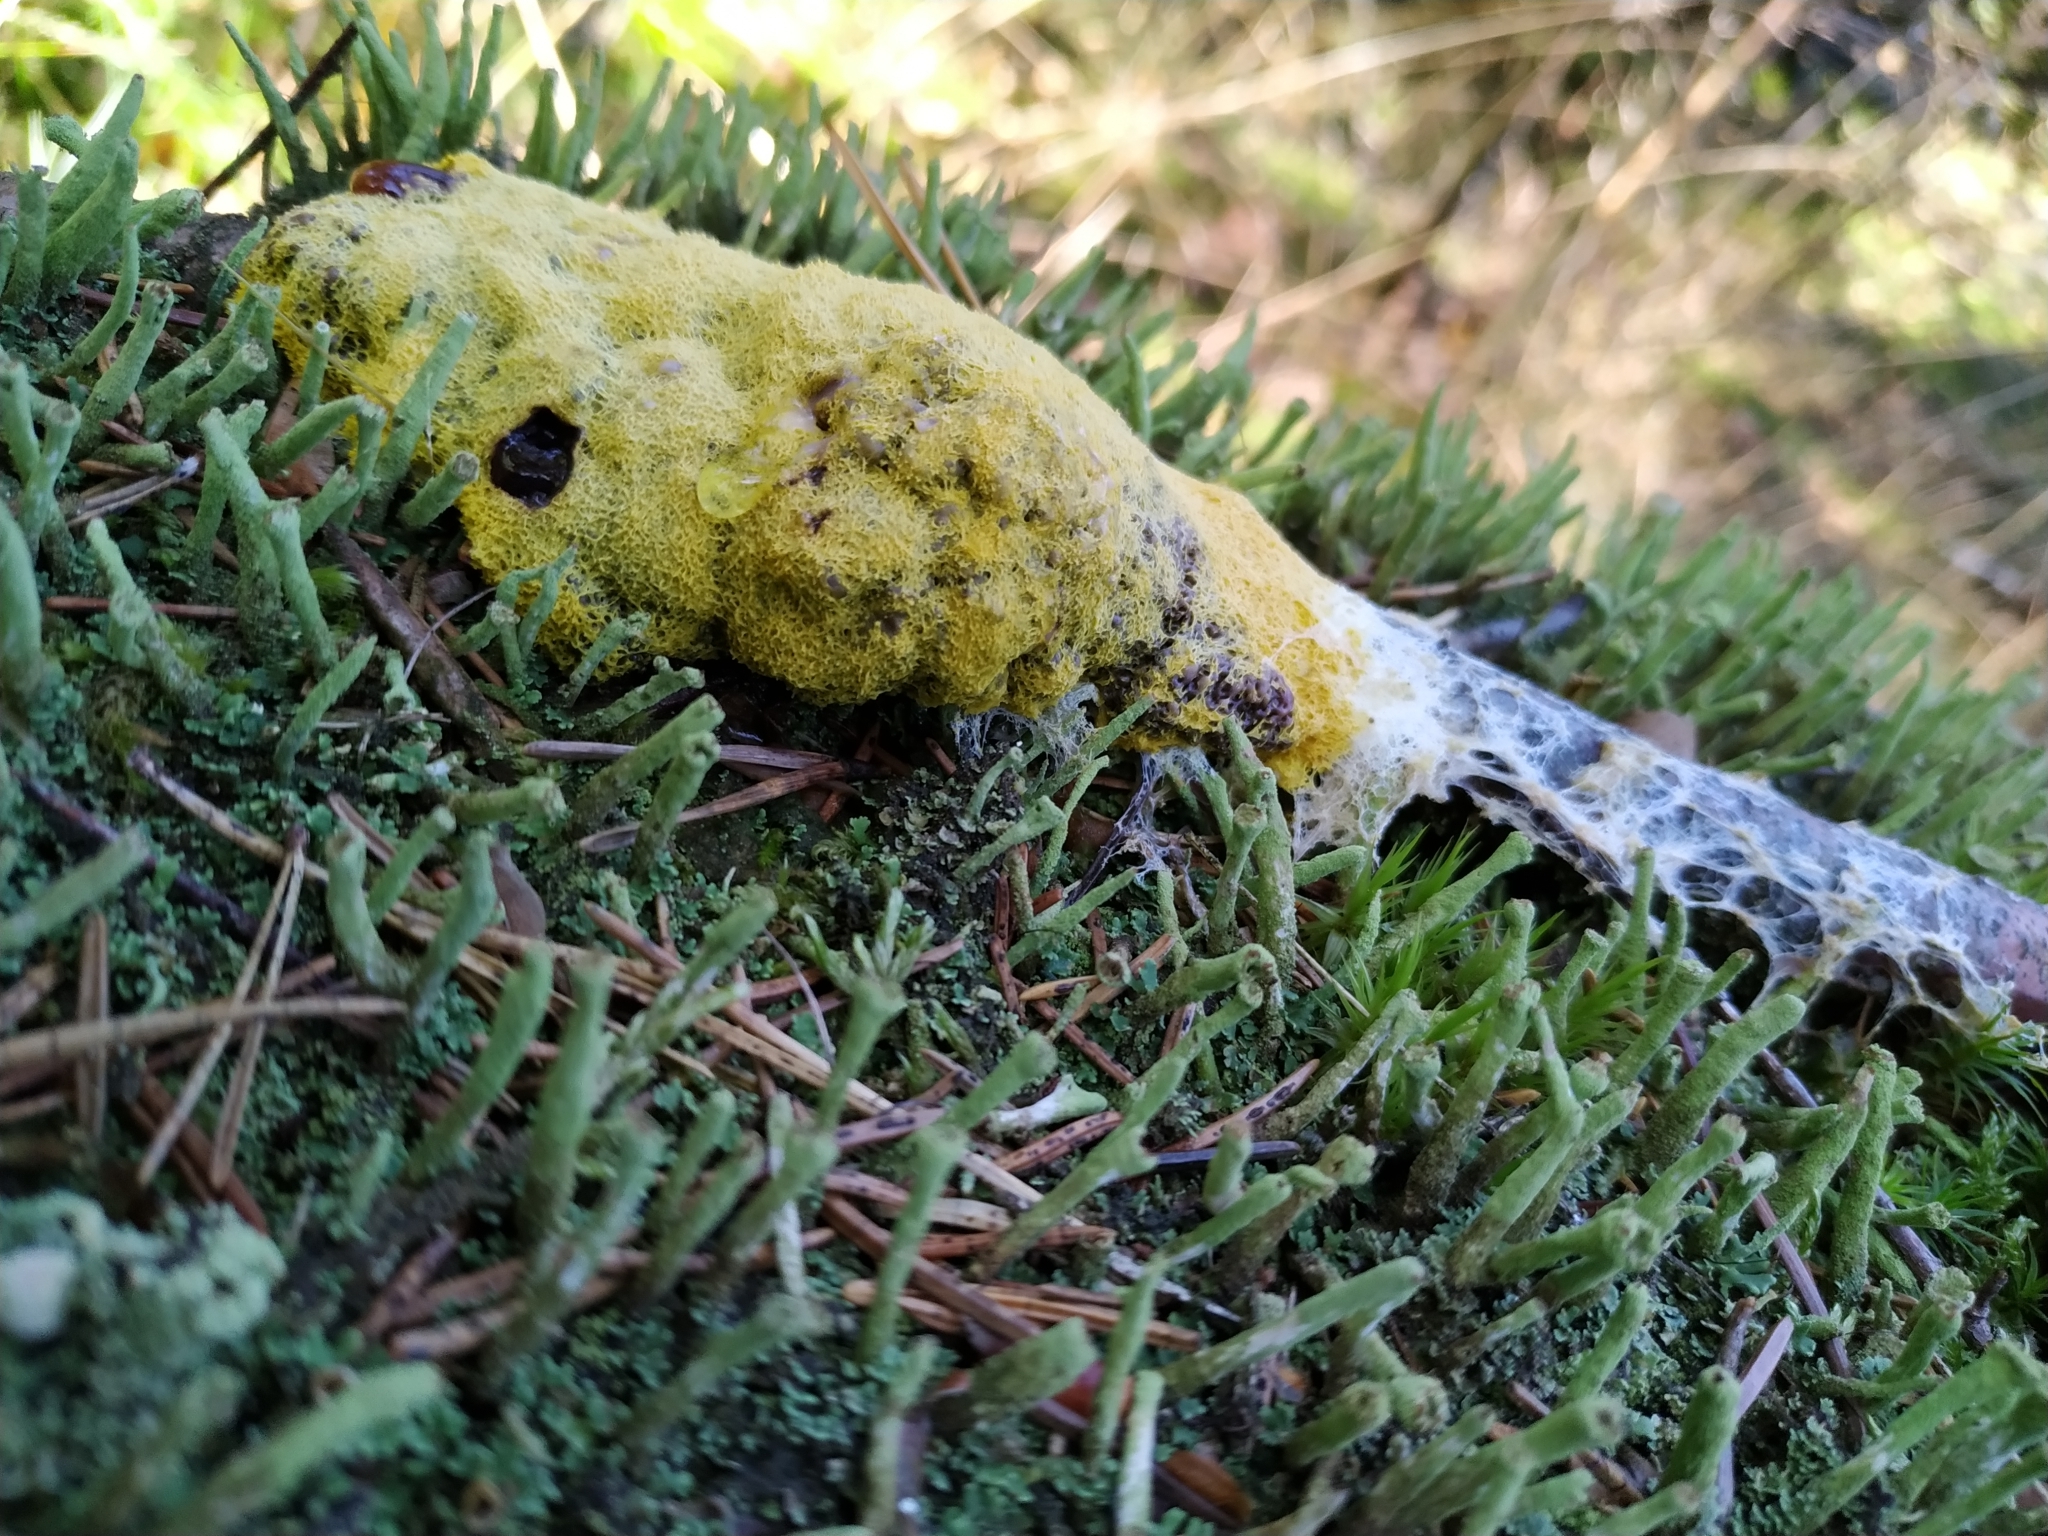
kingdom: Protozoa
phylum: Mycetozoa
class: Myxomycetes
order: Physarales
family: Physaraceae
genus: Fuligo
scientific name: Fuligo septica
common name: Dog vomit slime mold
